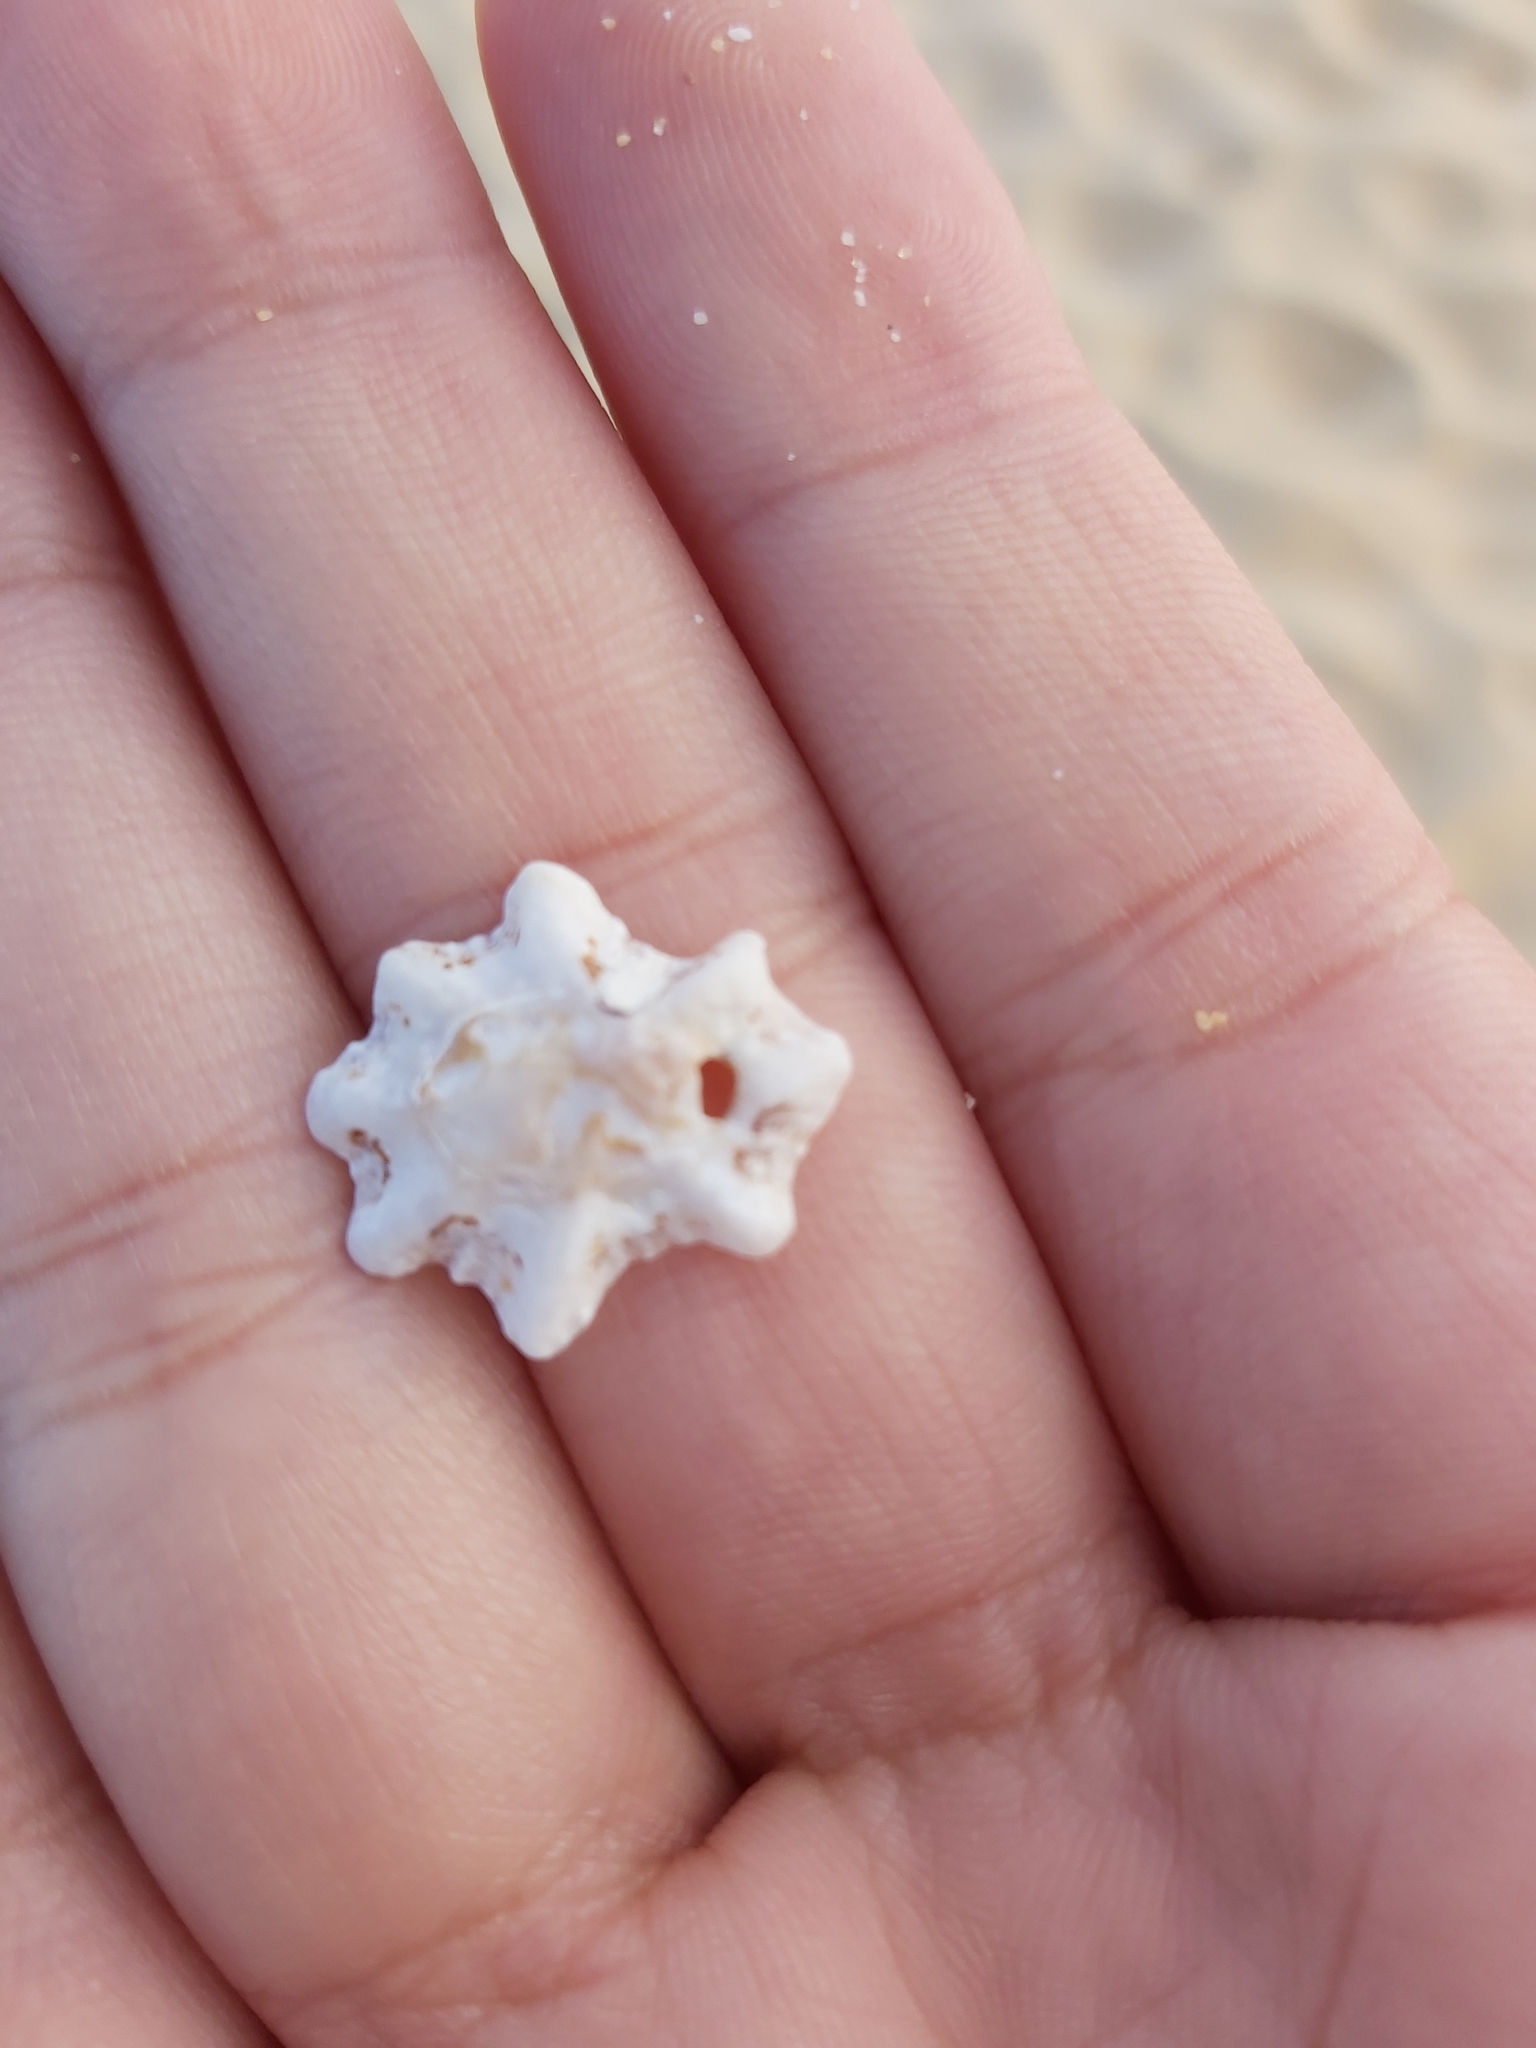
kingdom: Animalia
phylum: Mollusca
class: Gastropoda
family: Patellidae
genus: Scutellastra
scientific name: Scutellastra chapmani
